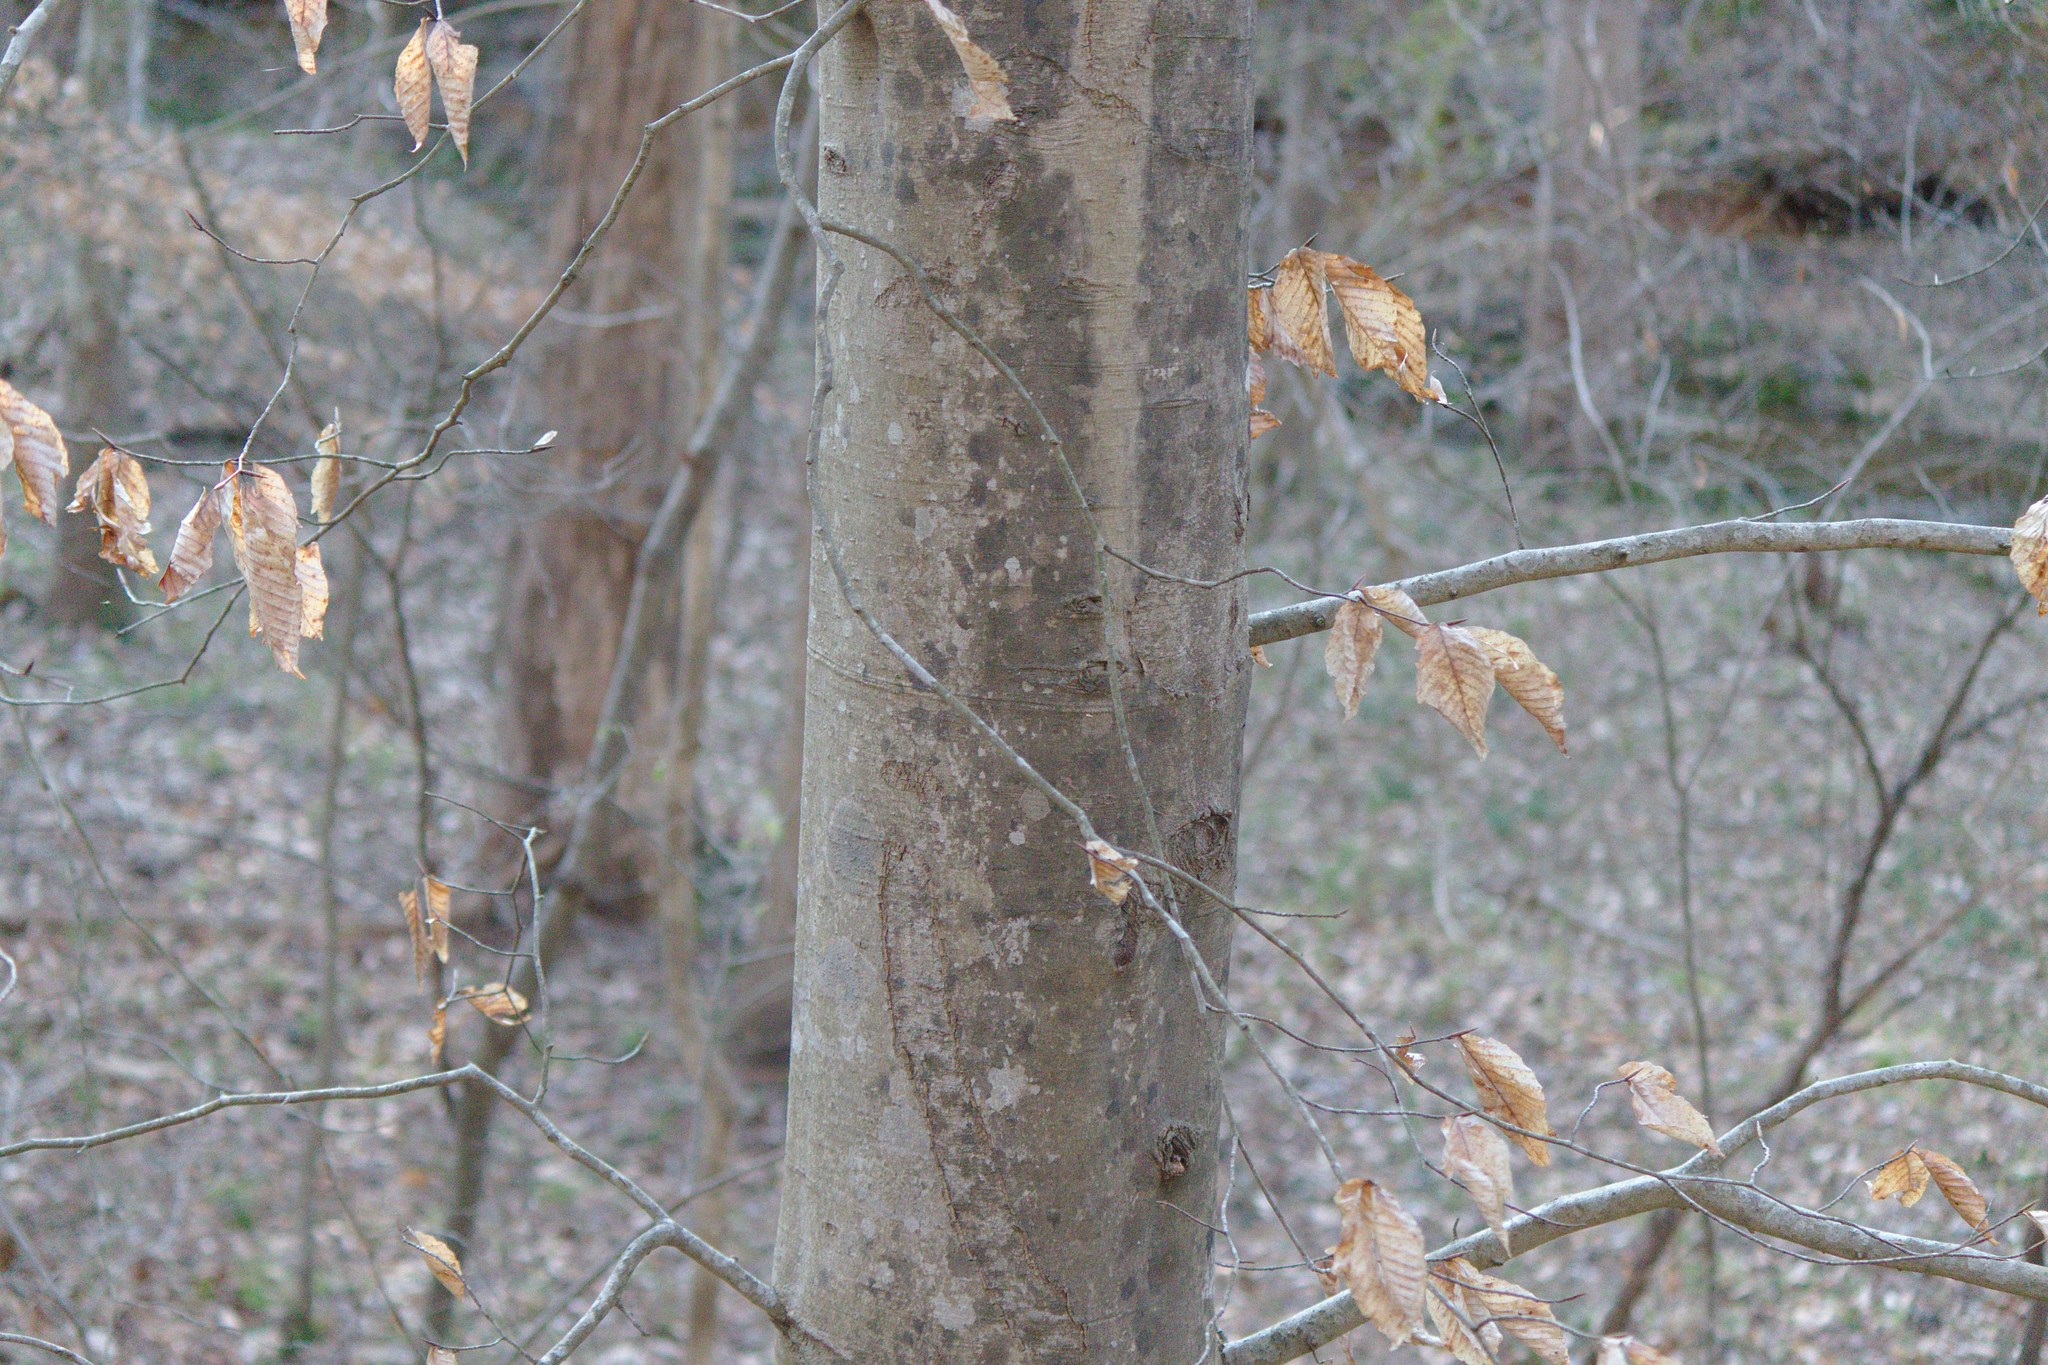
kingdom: Plantae
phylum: Tracheophyta
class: Magnoliopsida
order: Fagales
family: Fagaceae
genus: Fagus
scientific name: Fagus grandifolia
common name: American beech
